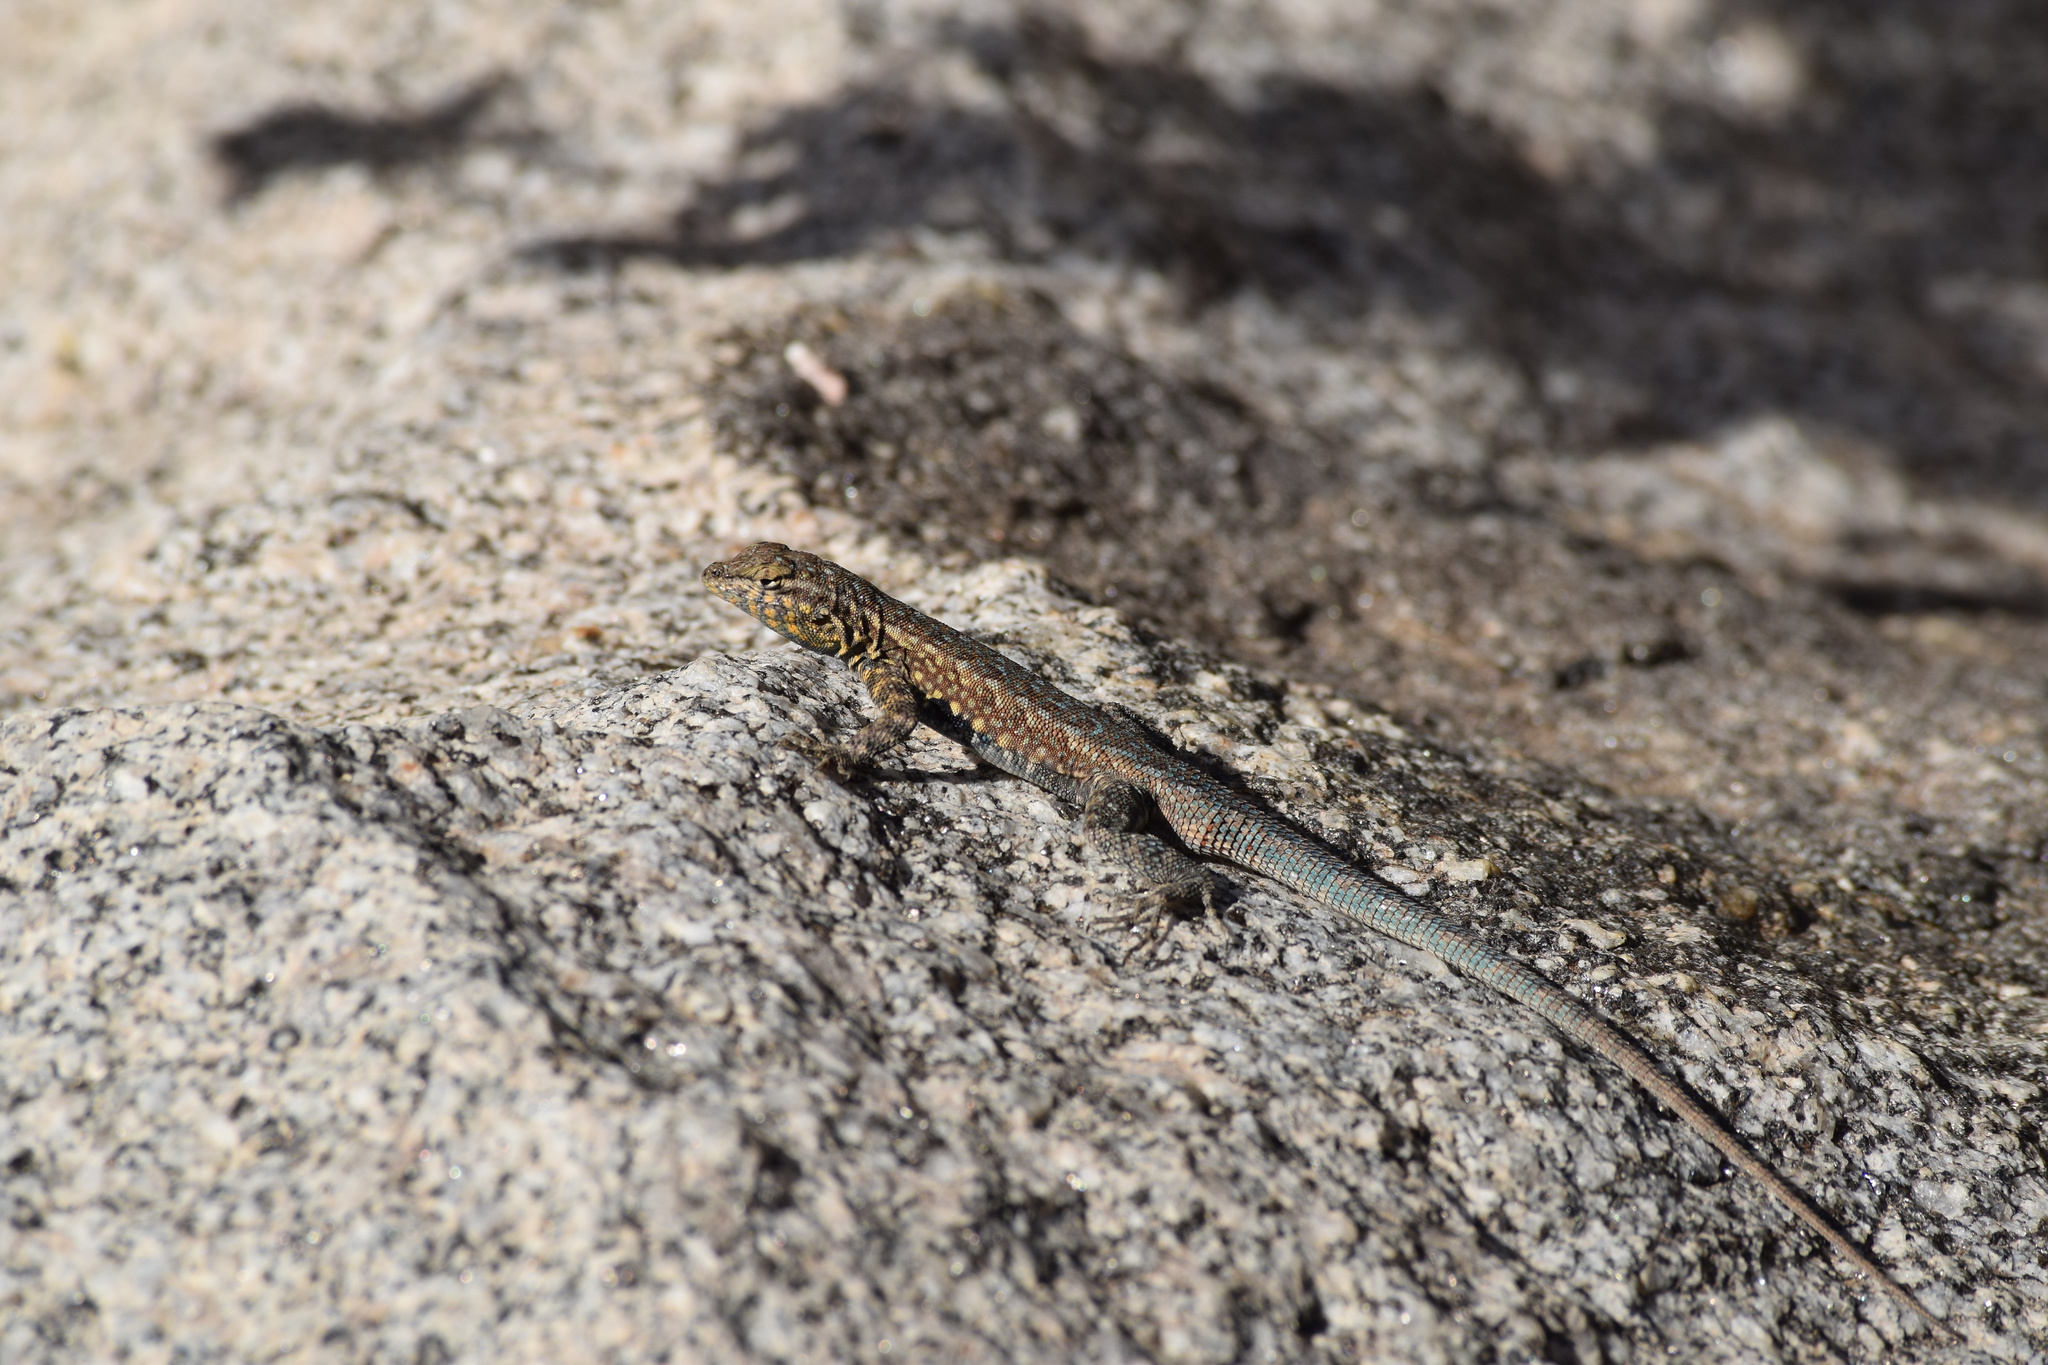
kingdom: Animalia
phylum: Chordata
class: Squamata
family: Phrynosomatidae
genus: Uta
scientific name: Uta stansburiana
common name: Side-blotched lizard
